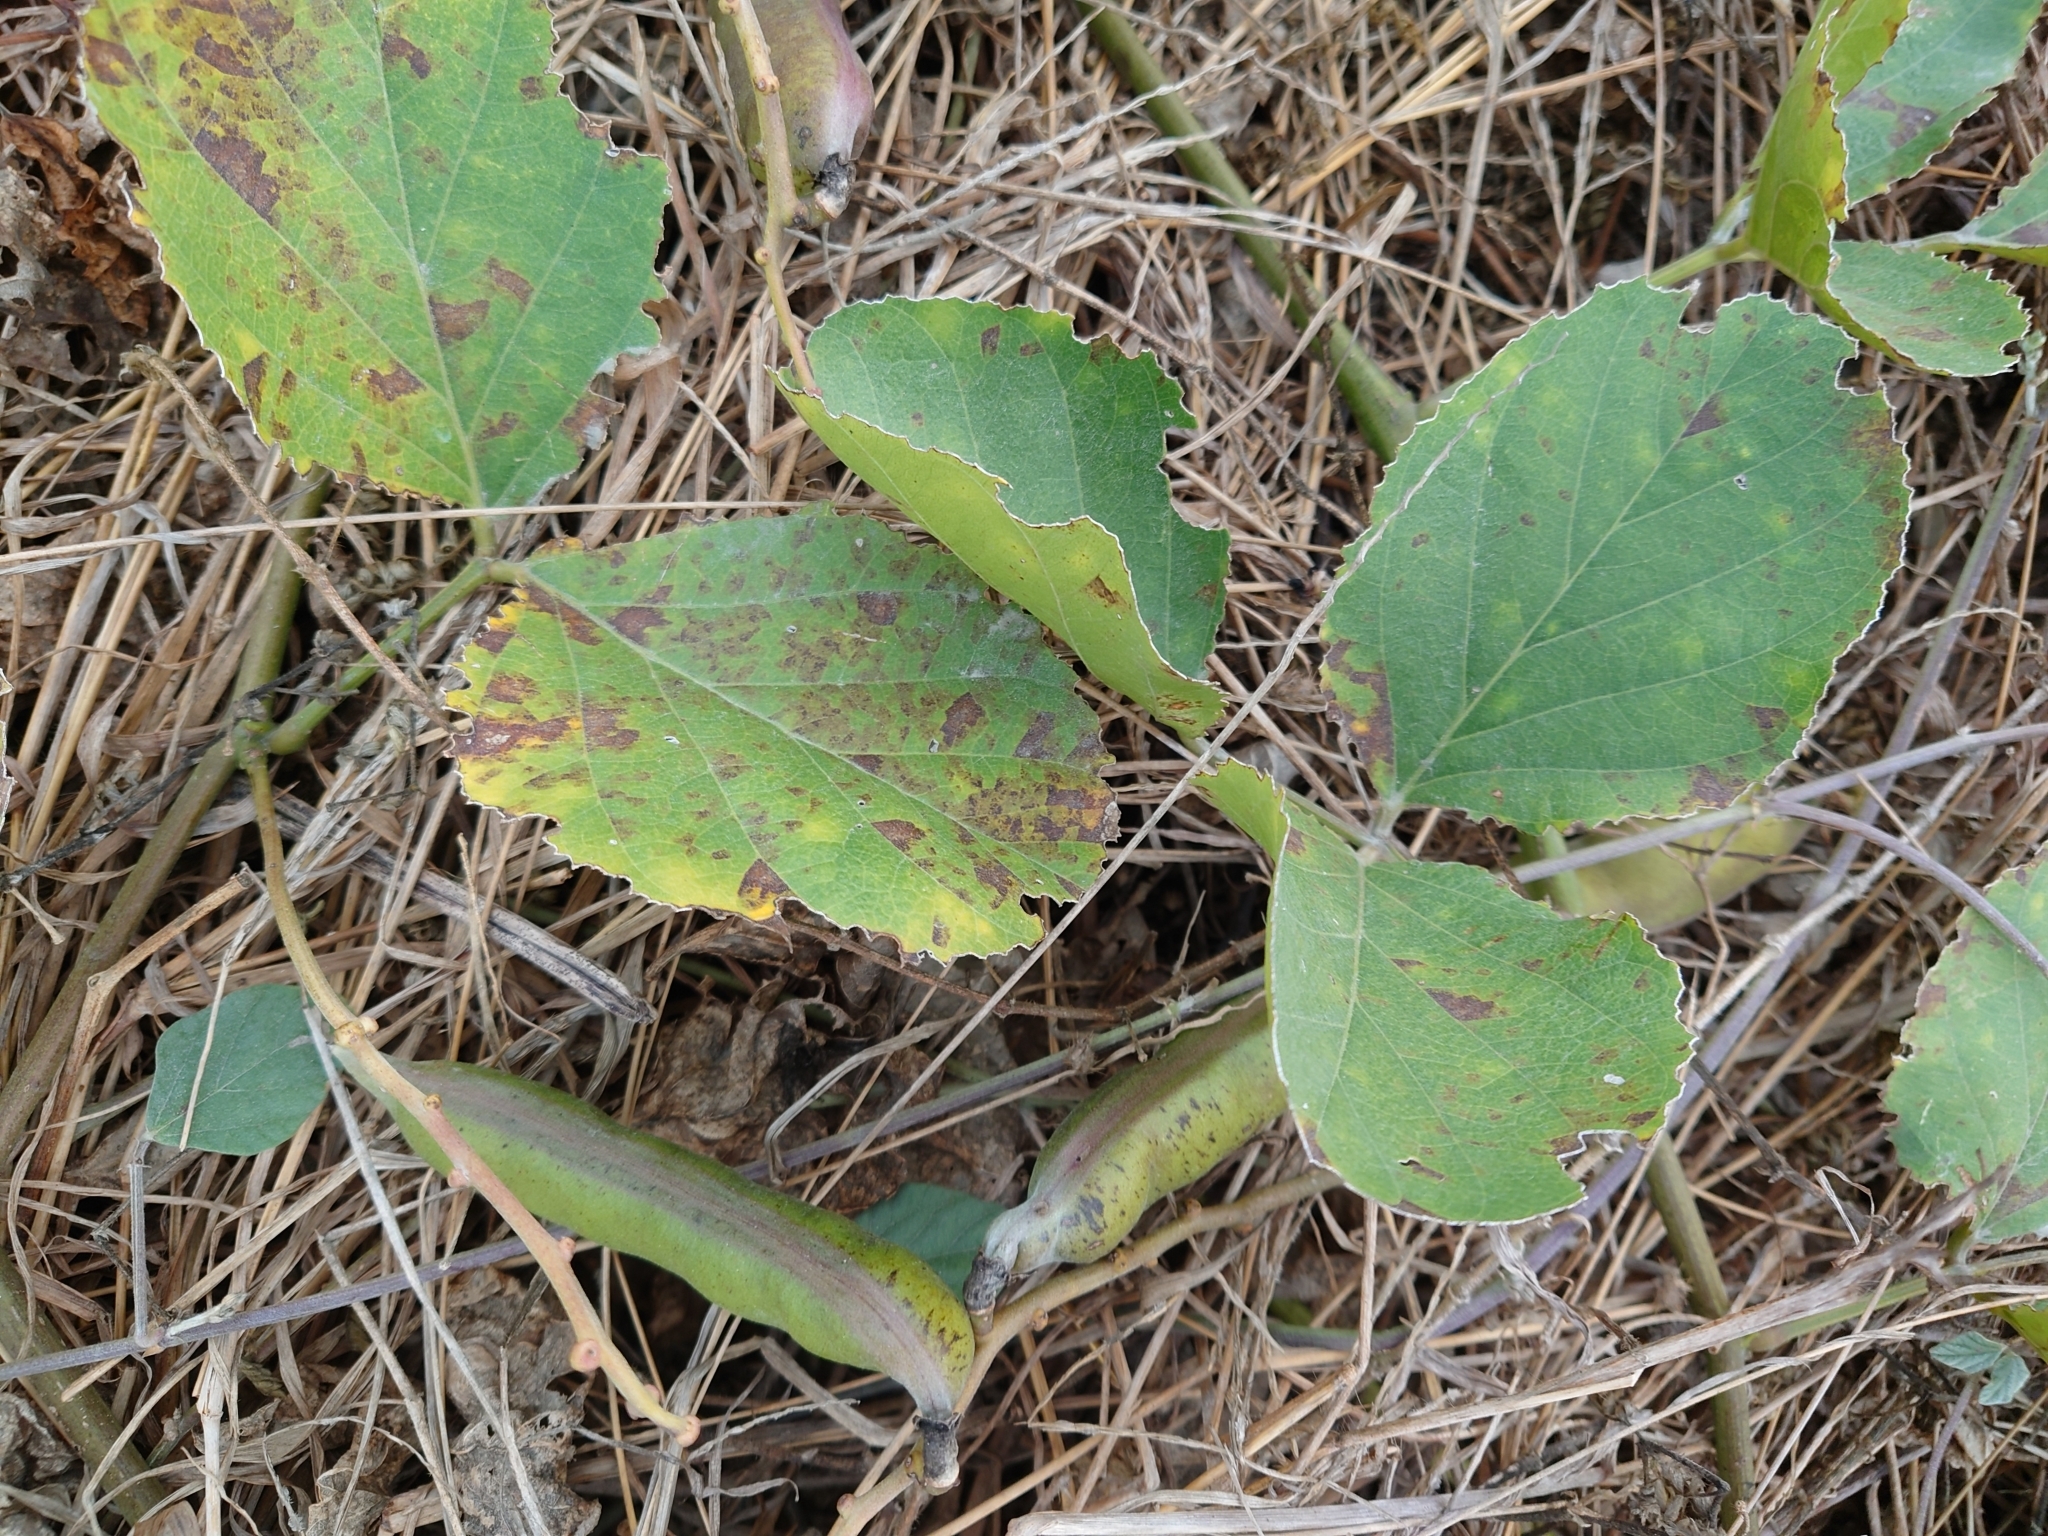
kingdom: Plantae
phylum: Tracheophyta
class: Magnoliopsida
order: Fabales
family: Fabaceae
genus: Canavalia
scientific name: Canavalia lineata
